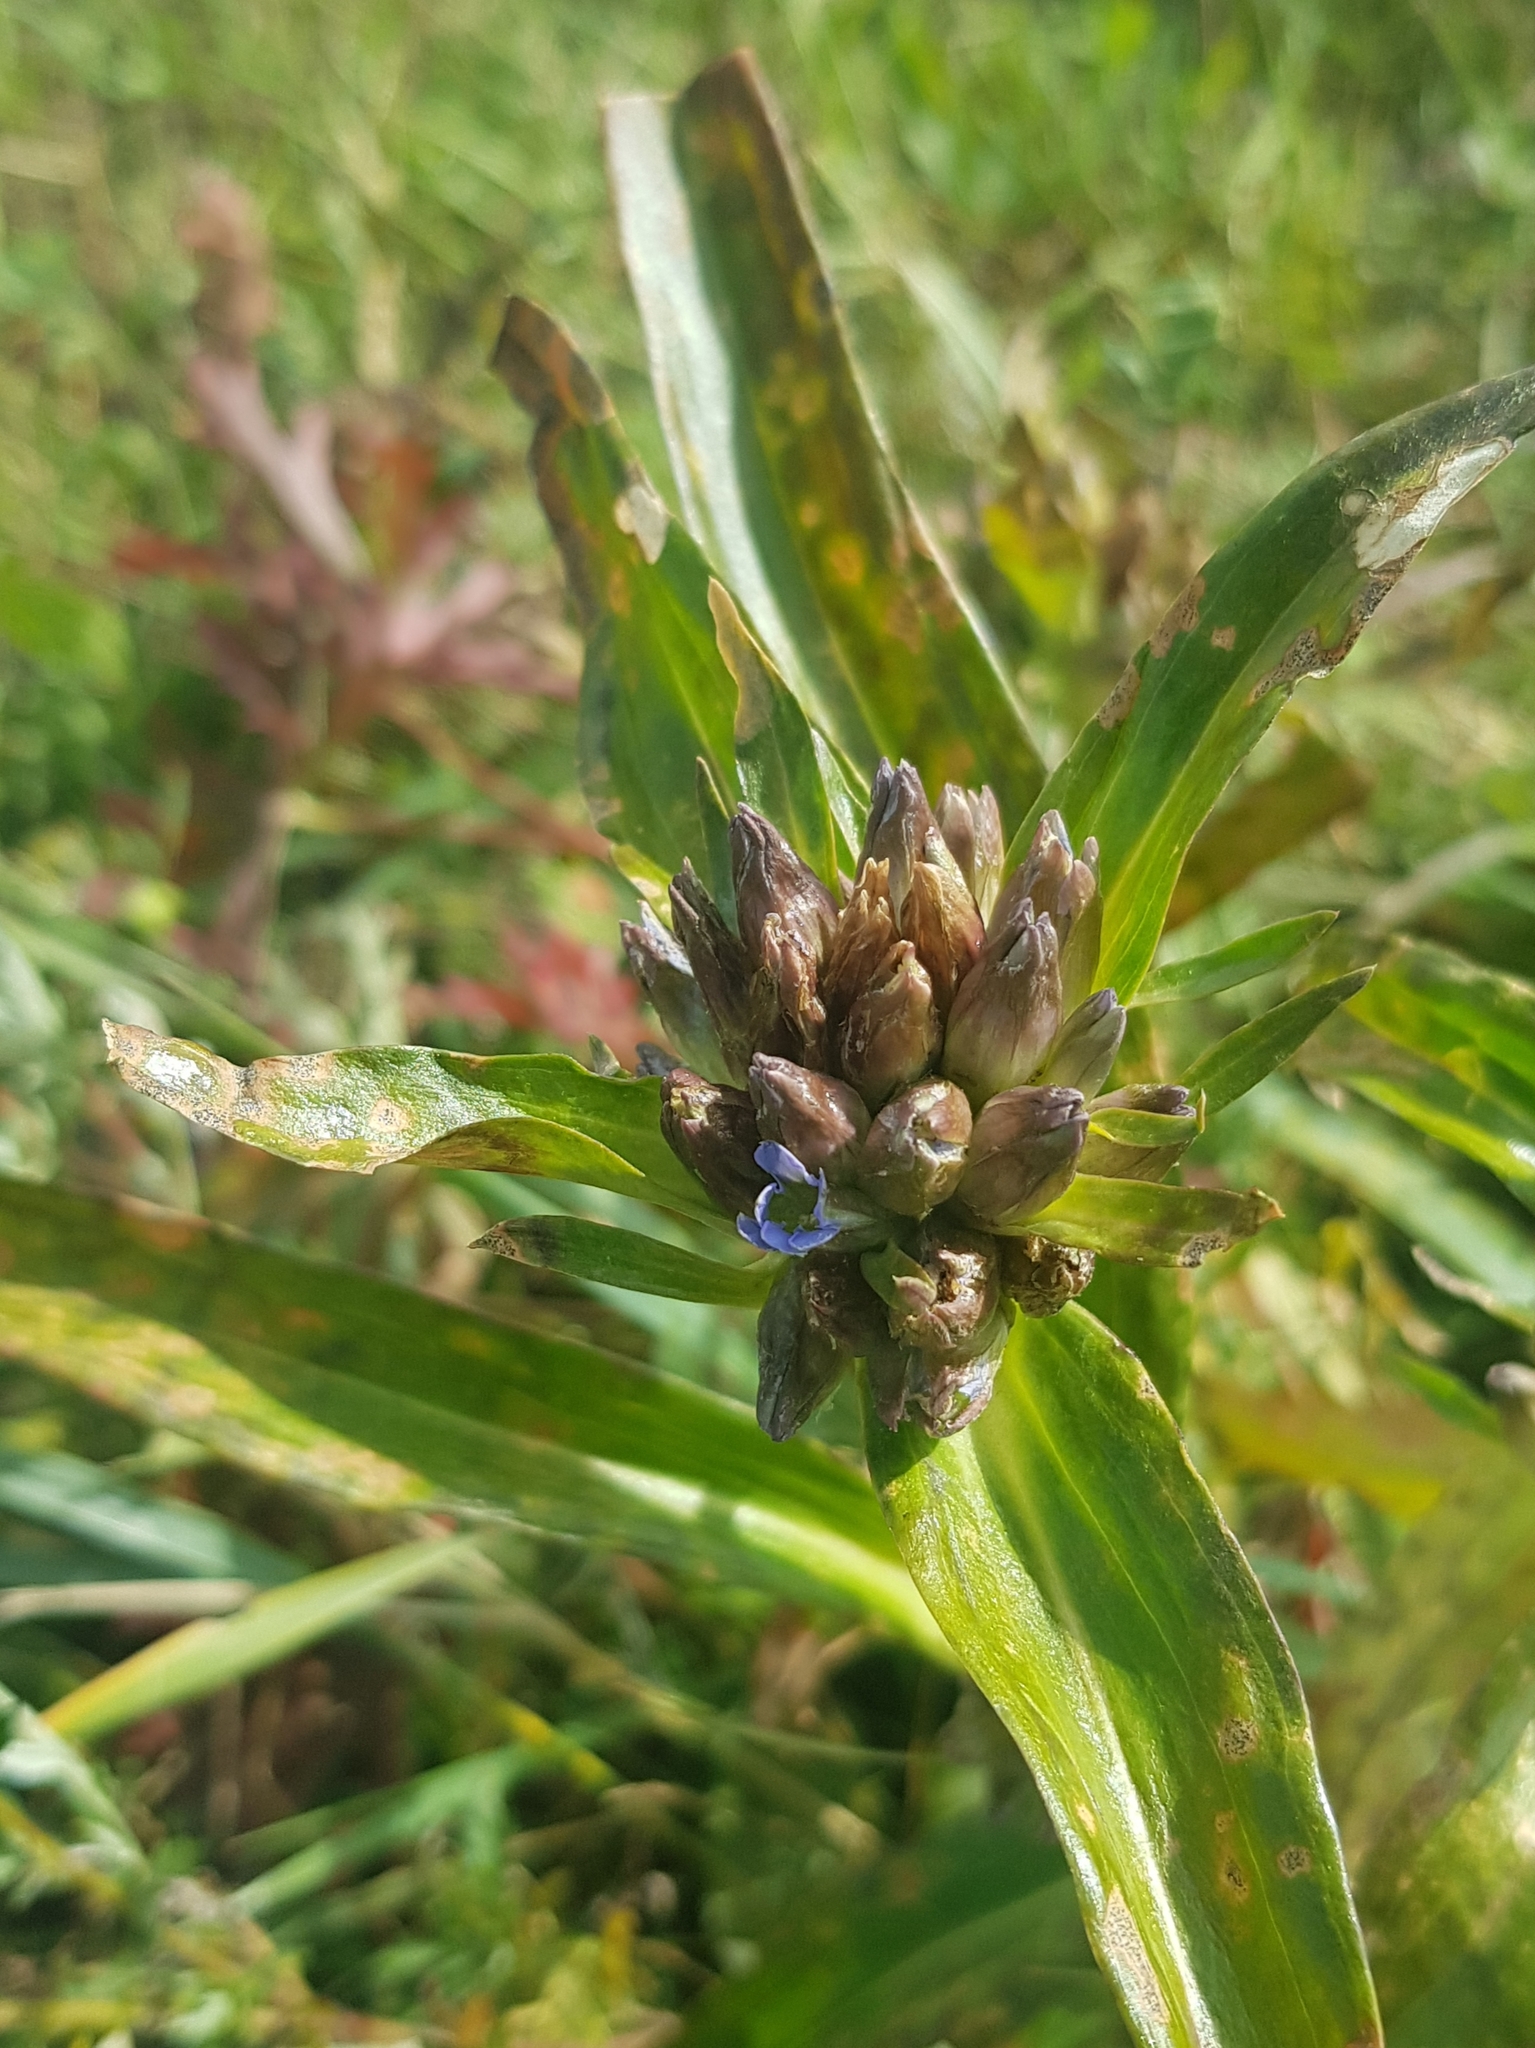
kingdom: Plantae
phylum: Tracheophyta
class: Magnoliopsida
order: Gentianales
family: Gentianaceae
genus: Gentiana
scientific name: Gentiana macrophylla
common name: Large-leaf gentian
